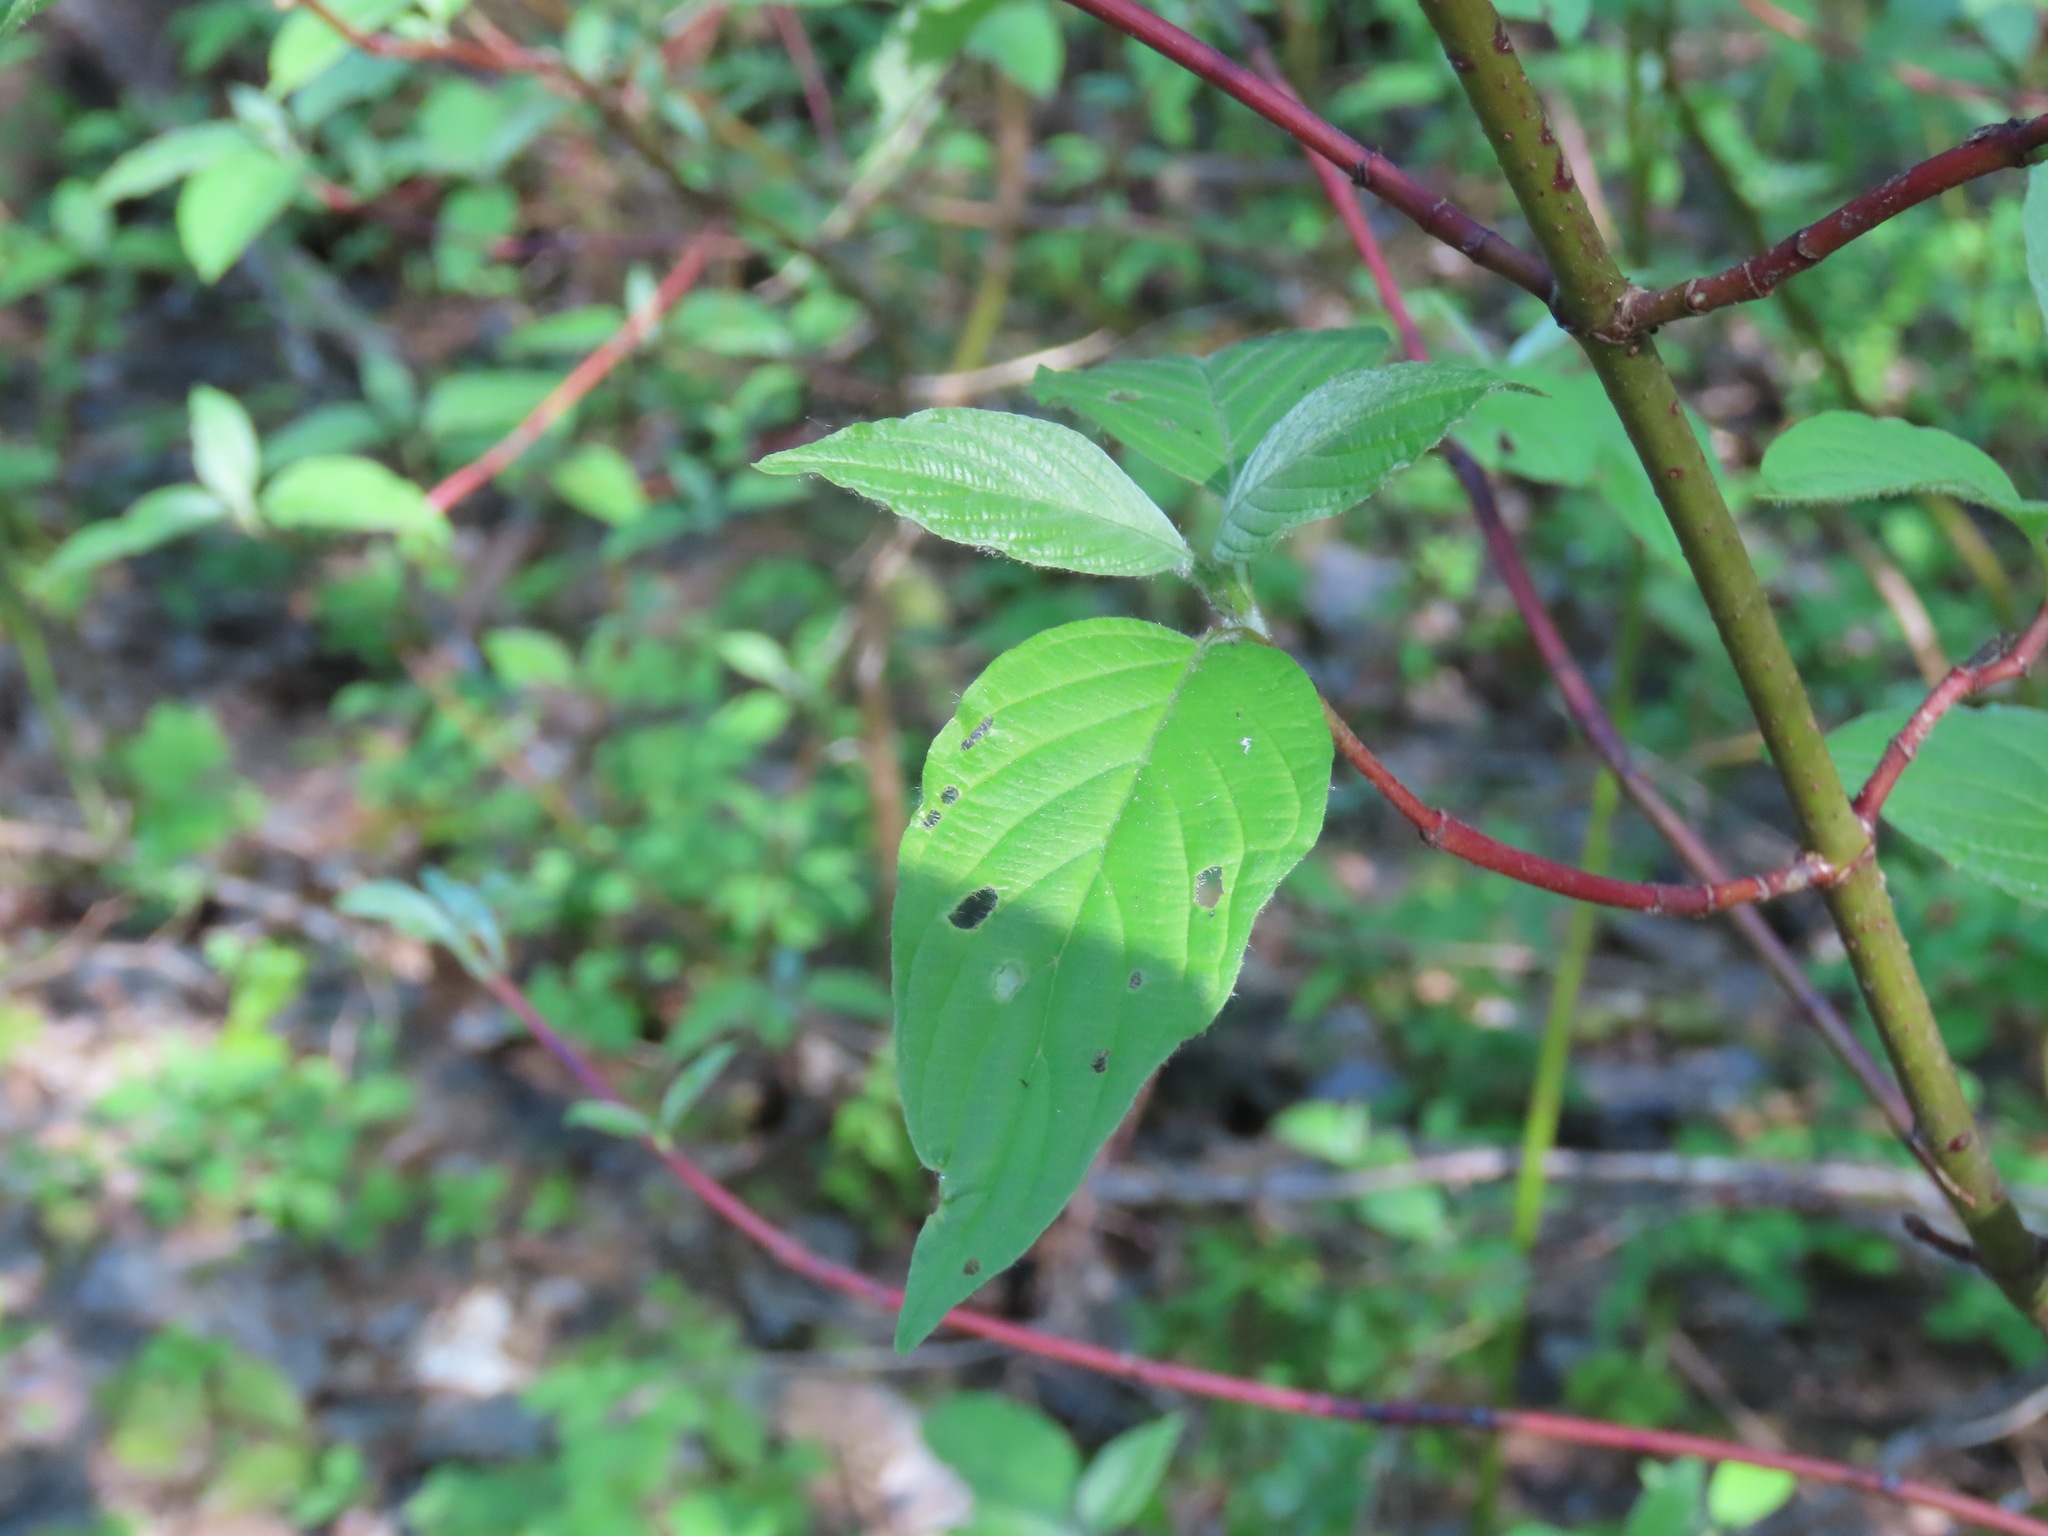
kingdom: Plantae
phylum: Tracheophyta
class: Magnoliopsida
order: Cornales
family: Cornaceae
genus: Cornus
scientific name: Cornus sericea
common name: Red-osier dogwood
